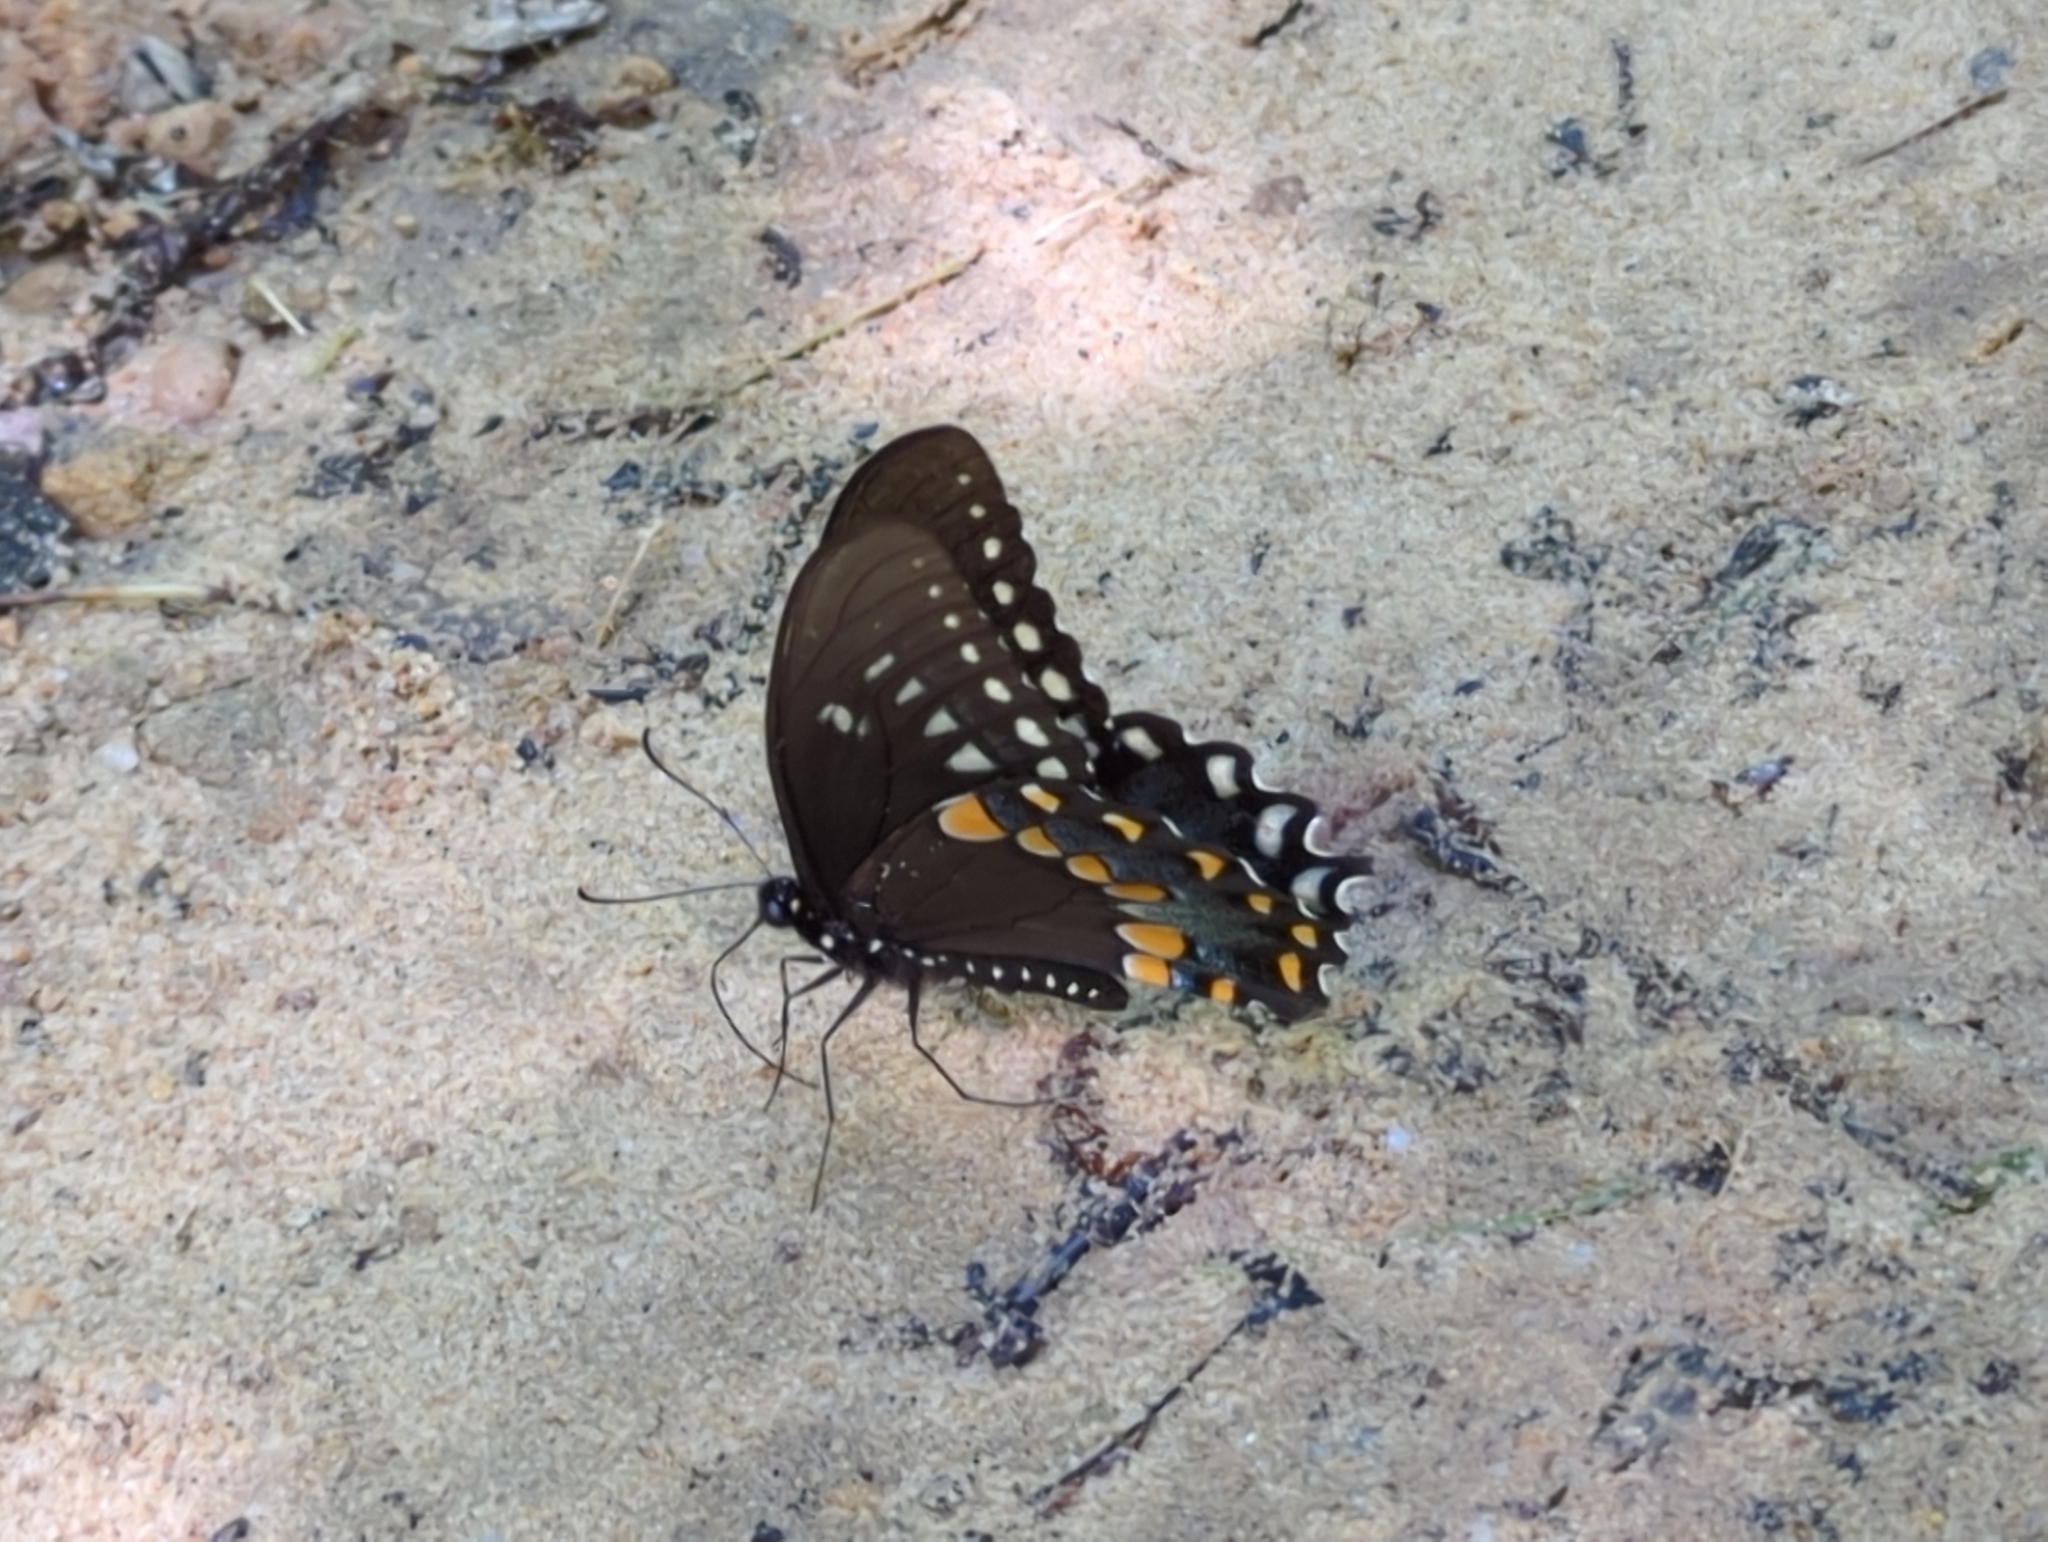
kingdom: Animalia
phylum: Arthropoda
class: Insecta
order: Lepidoptera
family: Papilionidae
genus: Papilio
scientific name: Papilio troilus
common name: Spicebush swallowtail
